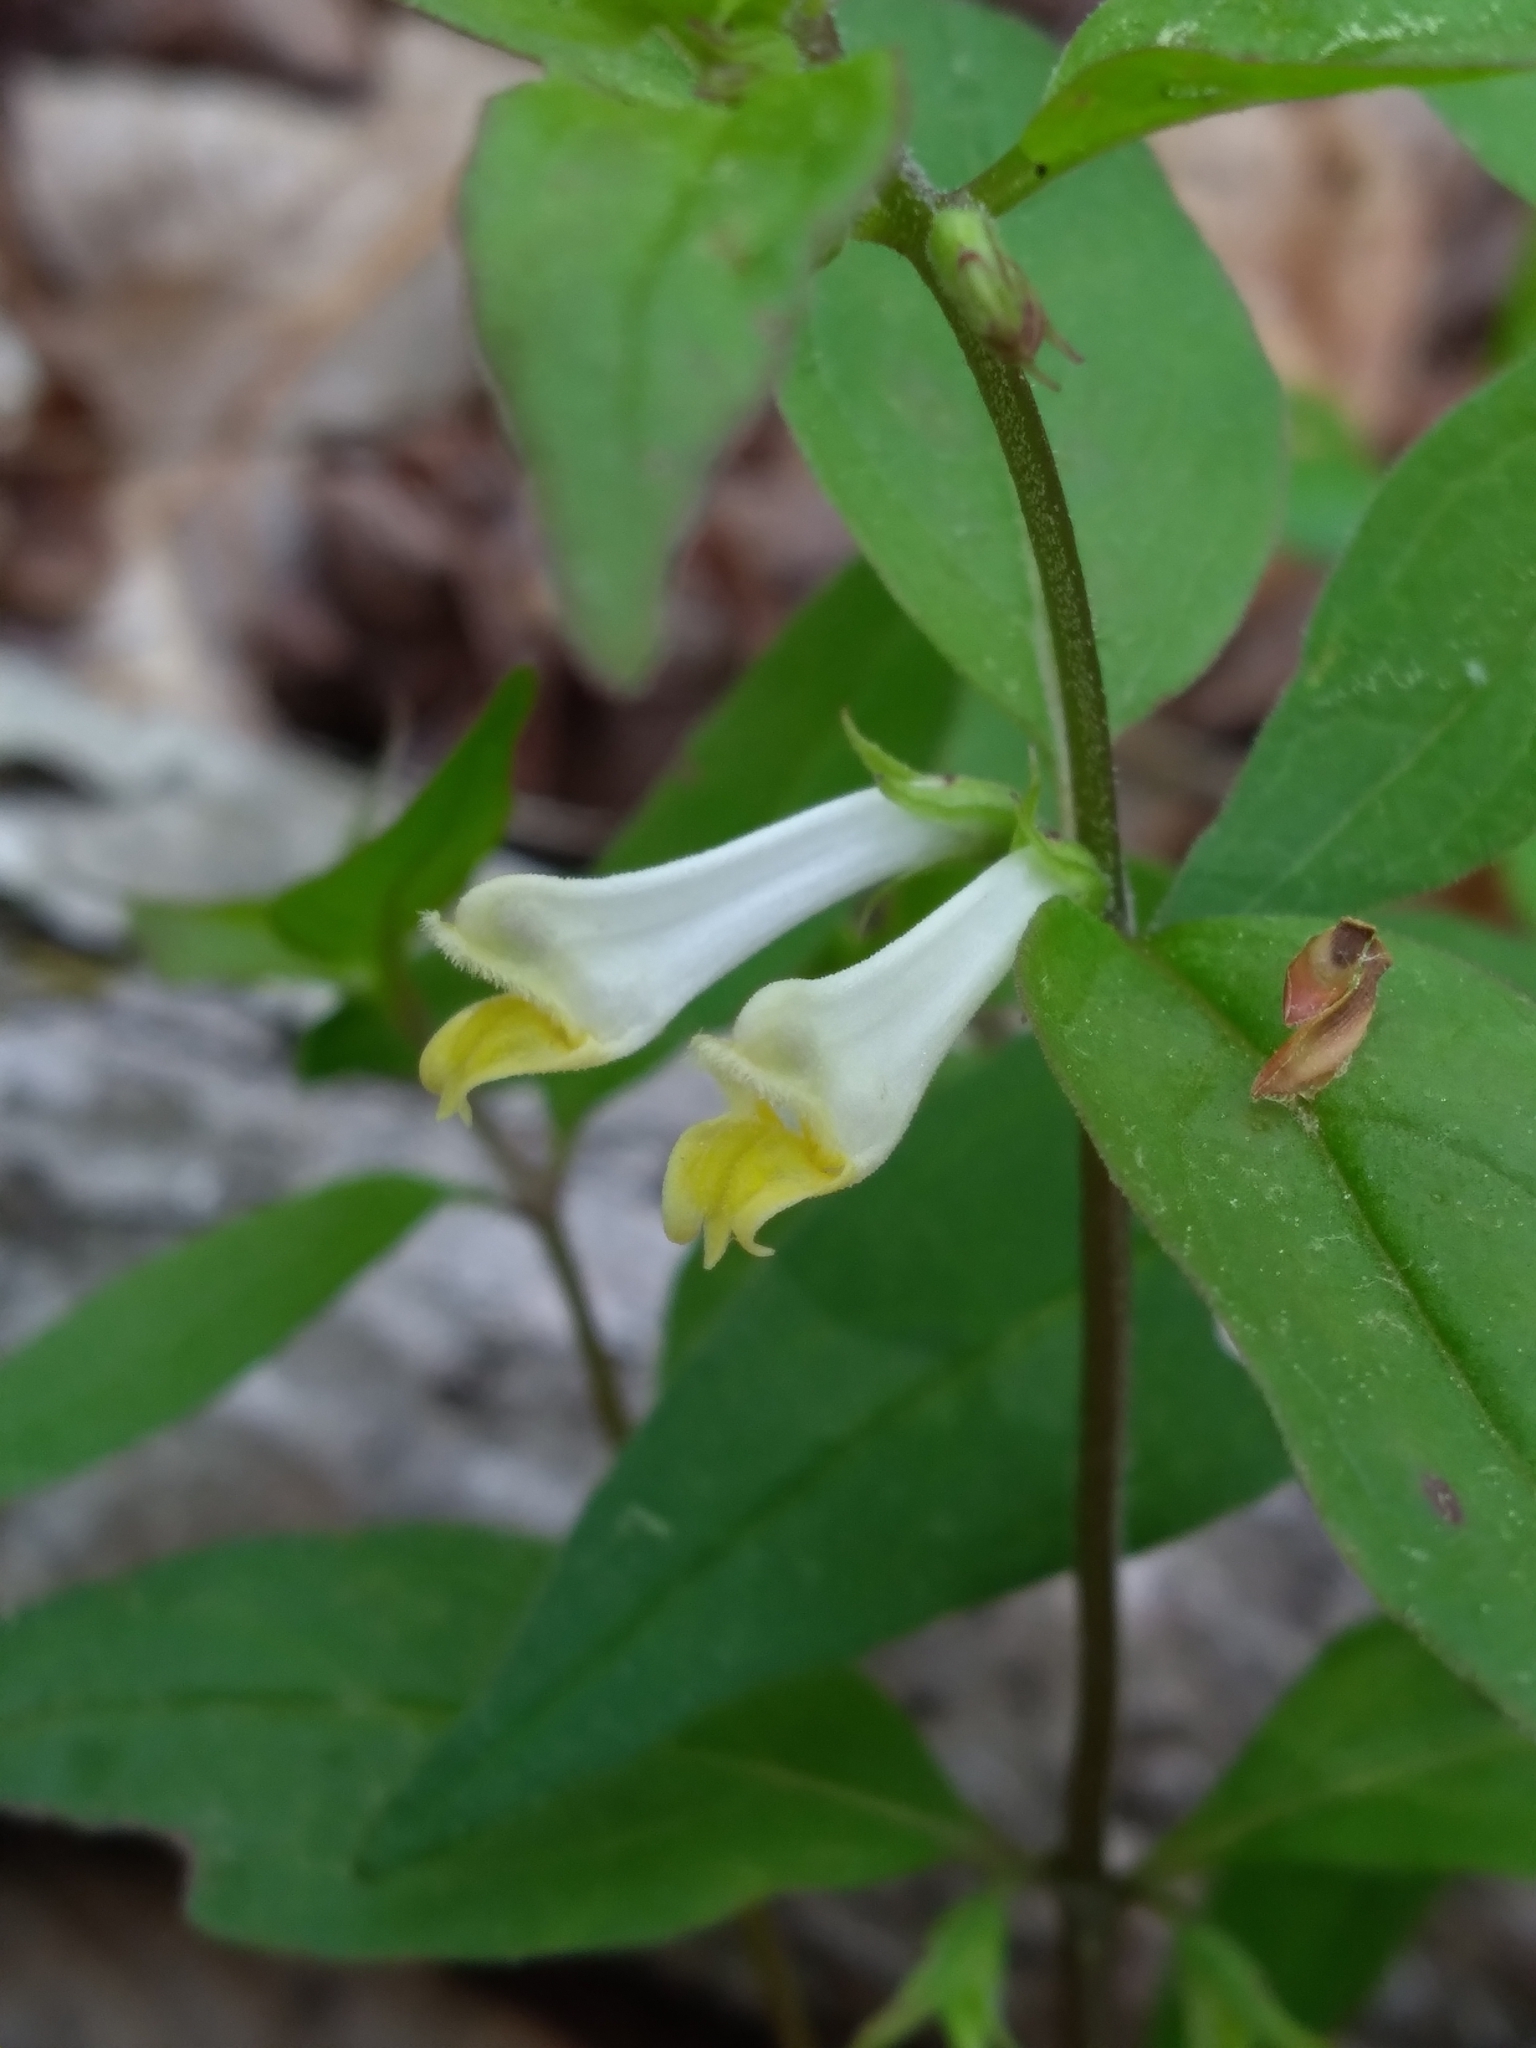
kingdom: Plantae
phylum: Tracheophyta
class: Magnoliopsida
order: Lamiales
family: Orobanchaceae
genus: Melampyrum
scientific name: Melampyrum lineare
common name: American cow-wheat
